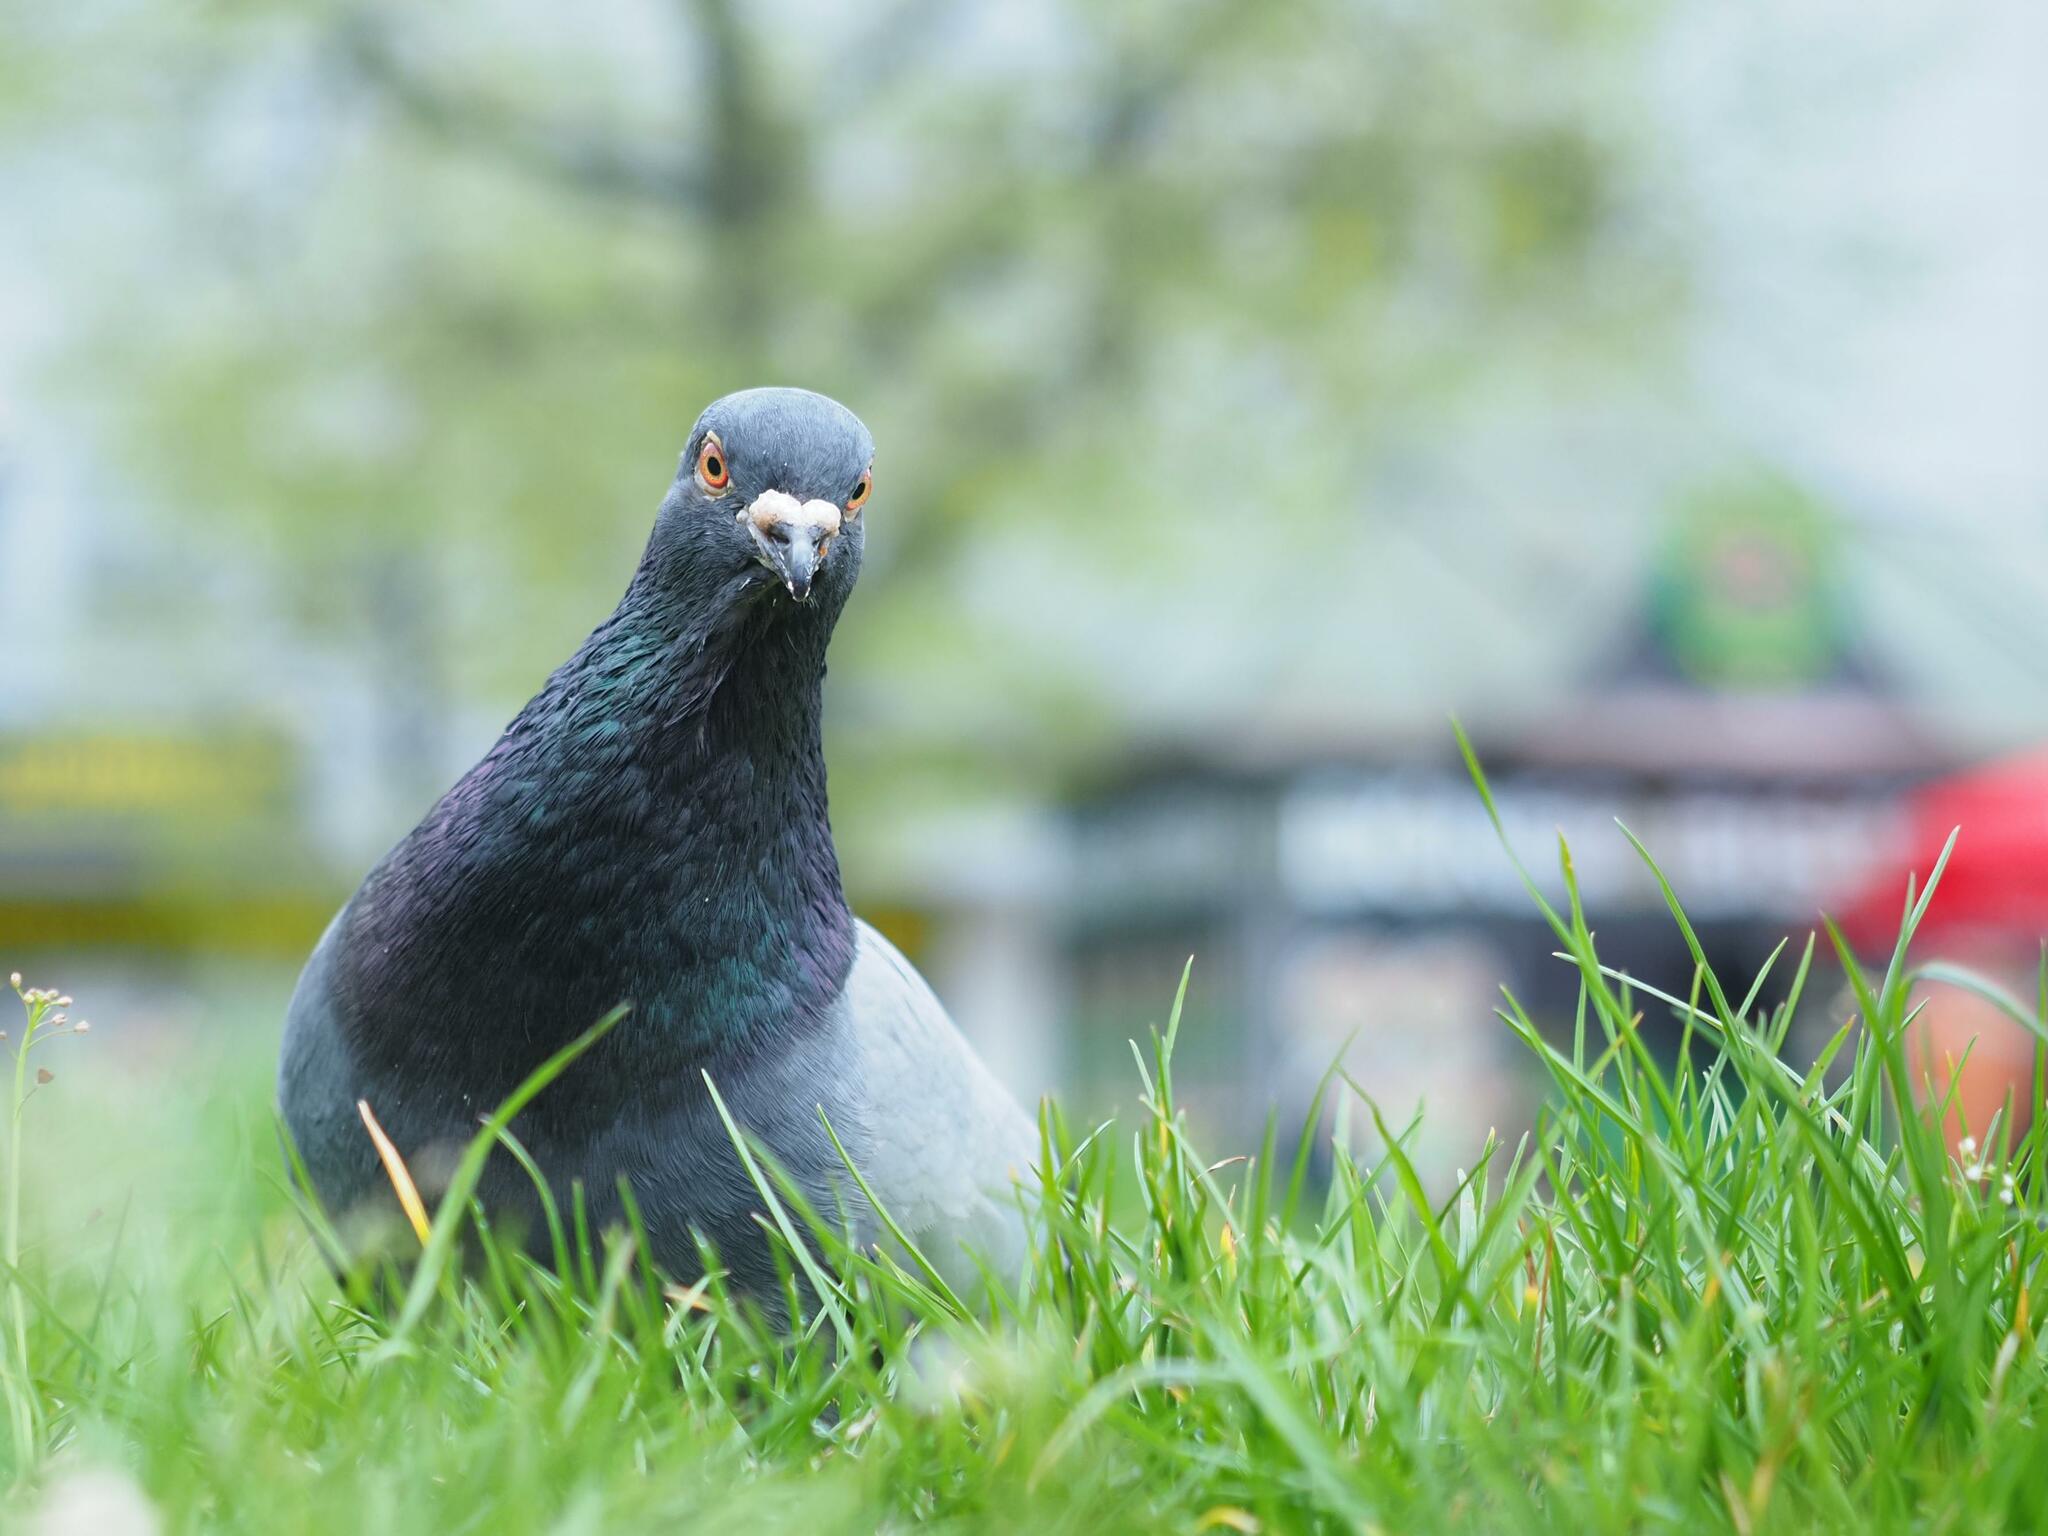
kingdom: Animalia
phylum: Chordata
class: Aves
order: Columbiformes
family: Columbidae
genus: Columba
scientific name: Columba livia
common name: Rock pigeon
